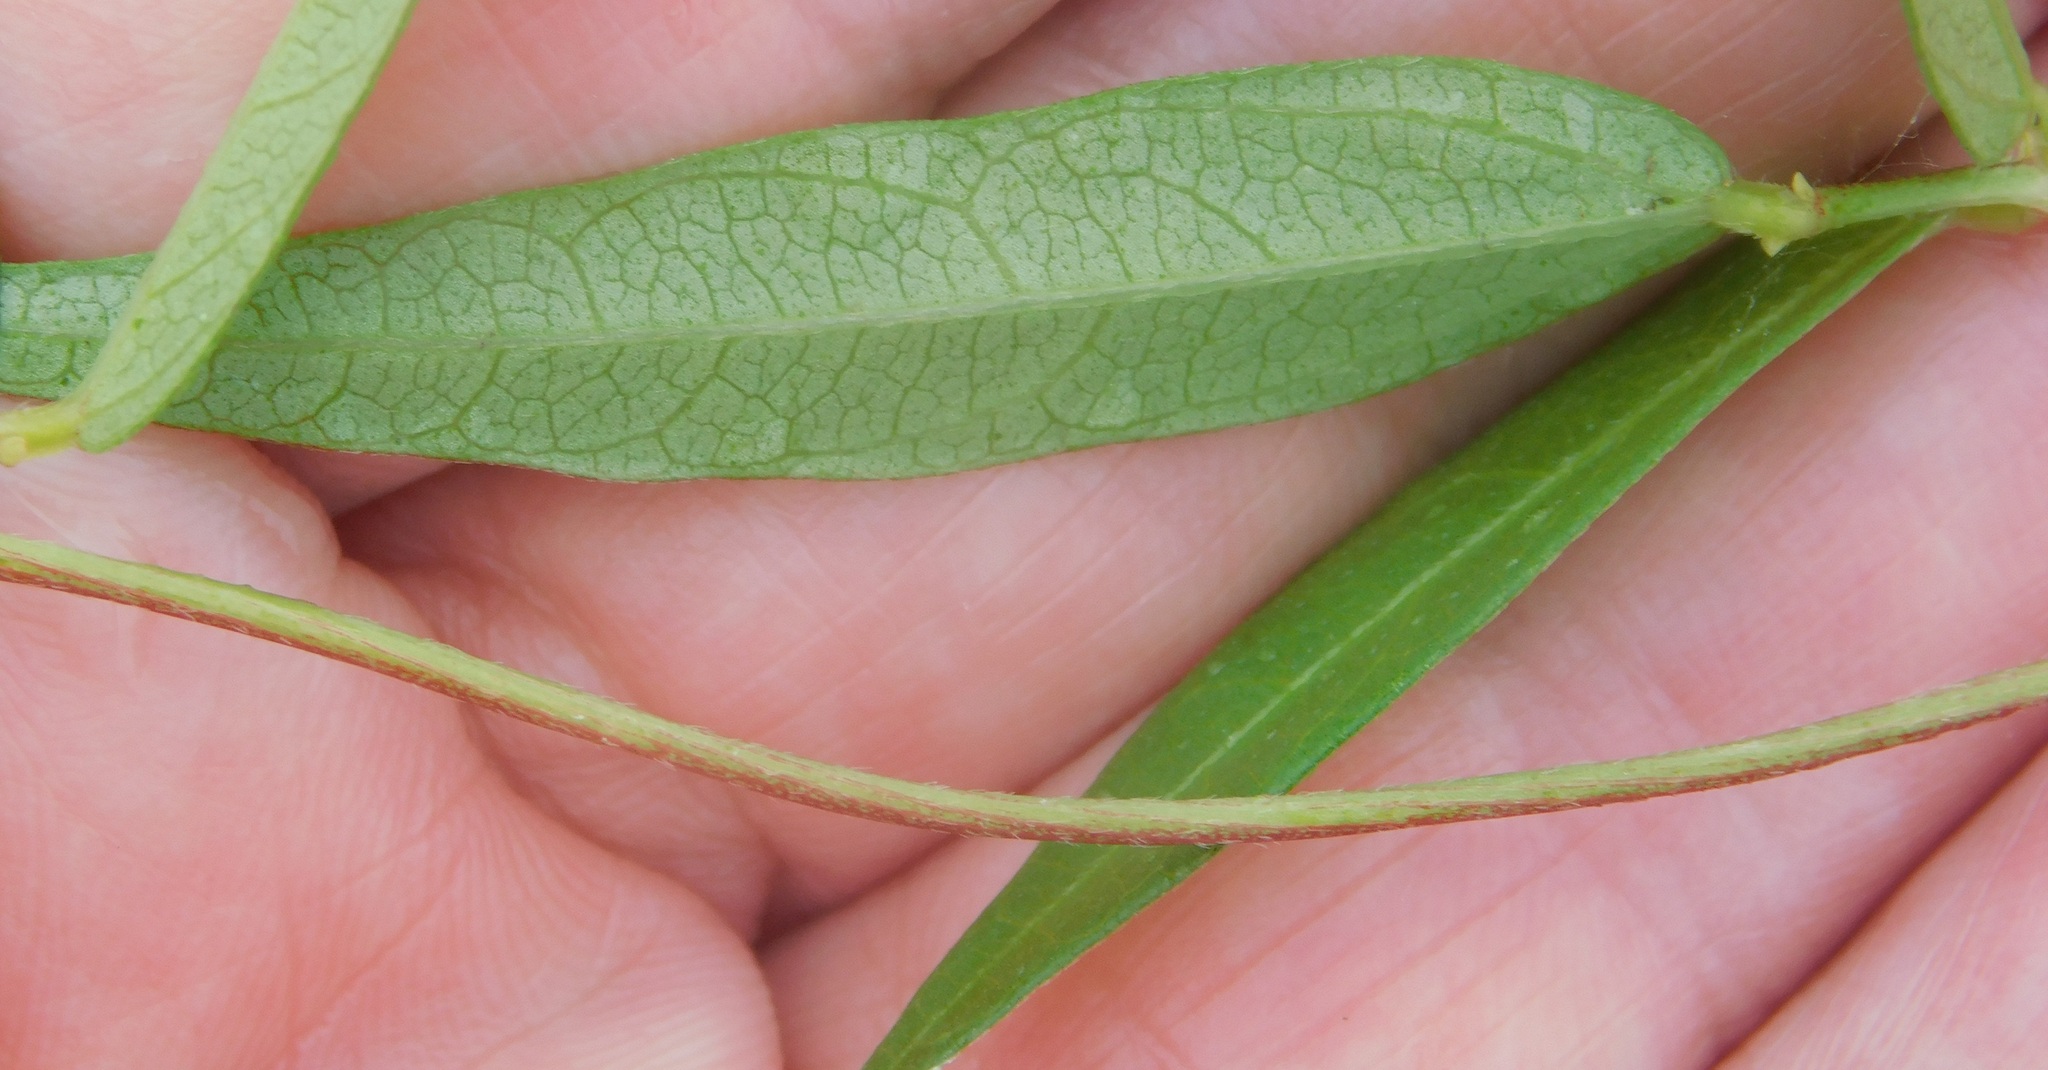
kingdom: Plantae
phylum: Tracheophyta
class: Magnoliopsida
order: Myrtales
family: Onagraceae
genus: Oenothera
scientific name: Oenothera simulans
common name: Southern beeblossom
